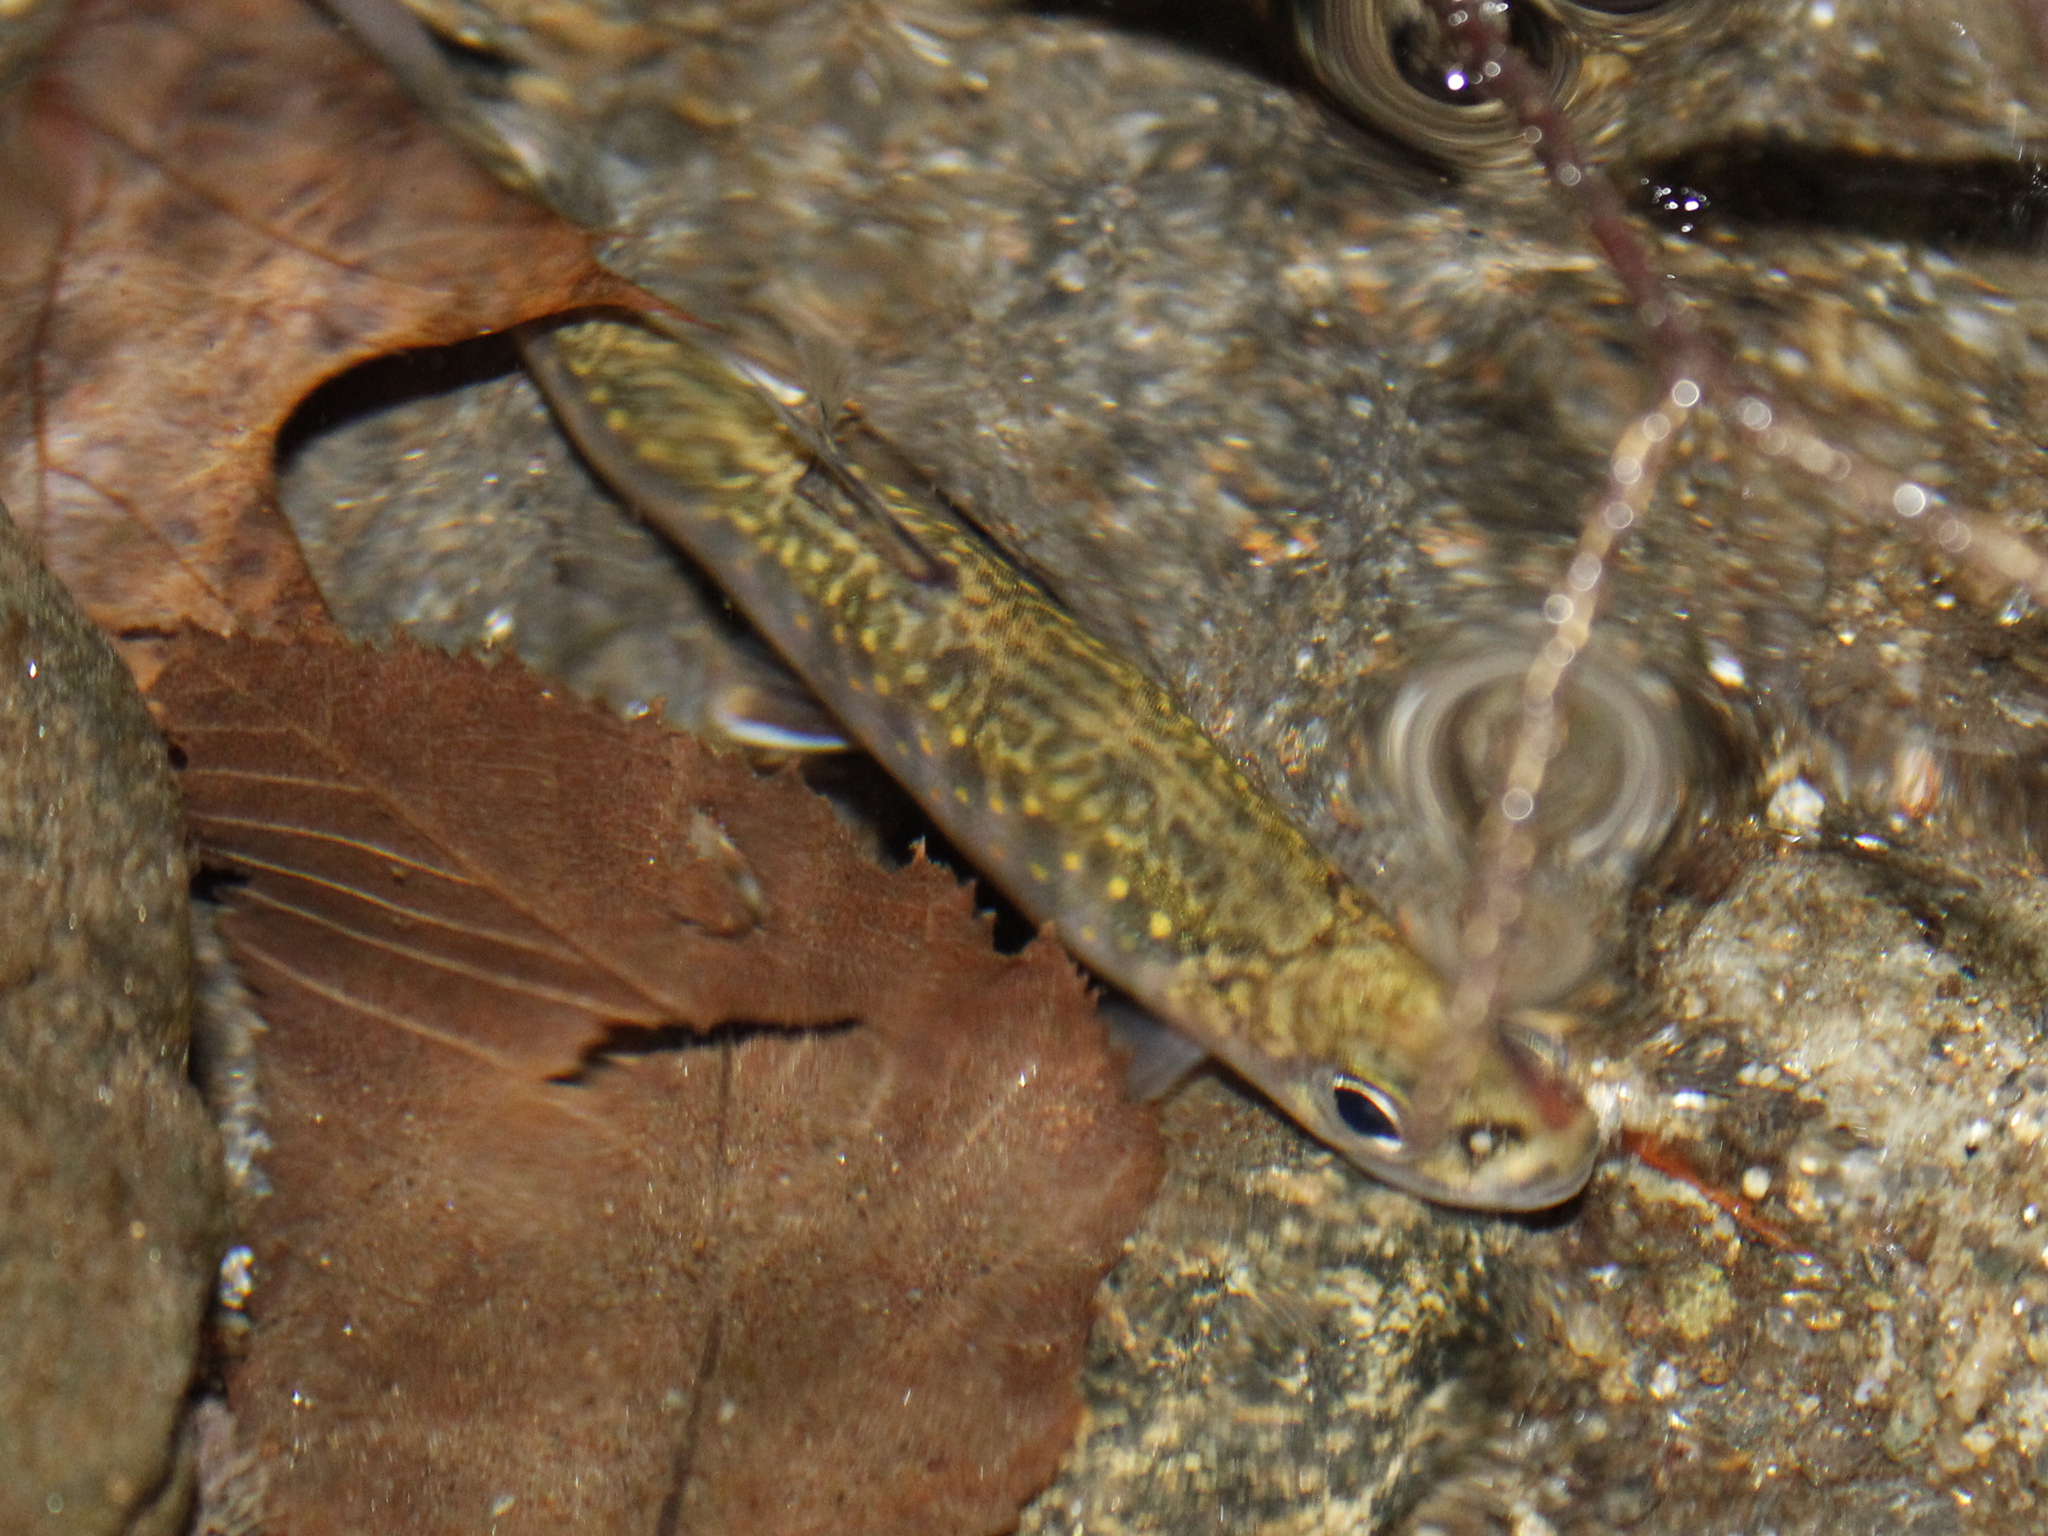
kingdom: Animalia
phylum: Chordata
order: Salmoniformes
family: Salmonidae
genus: Salvelinus
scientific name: Salvelinus fontinalis
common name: Brook trout
